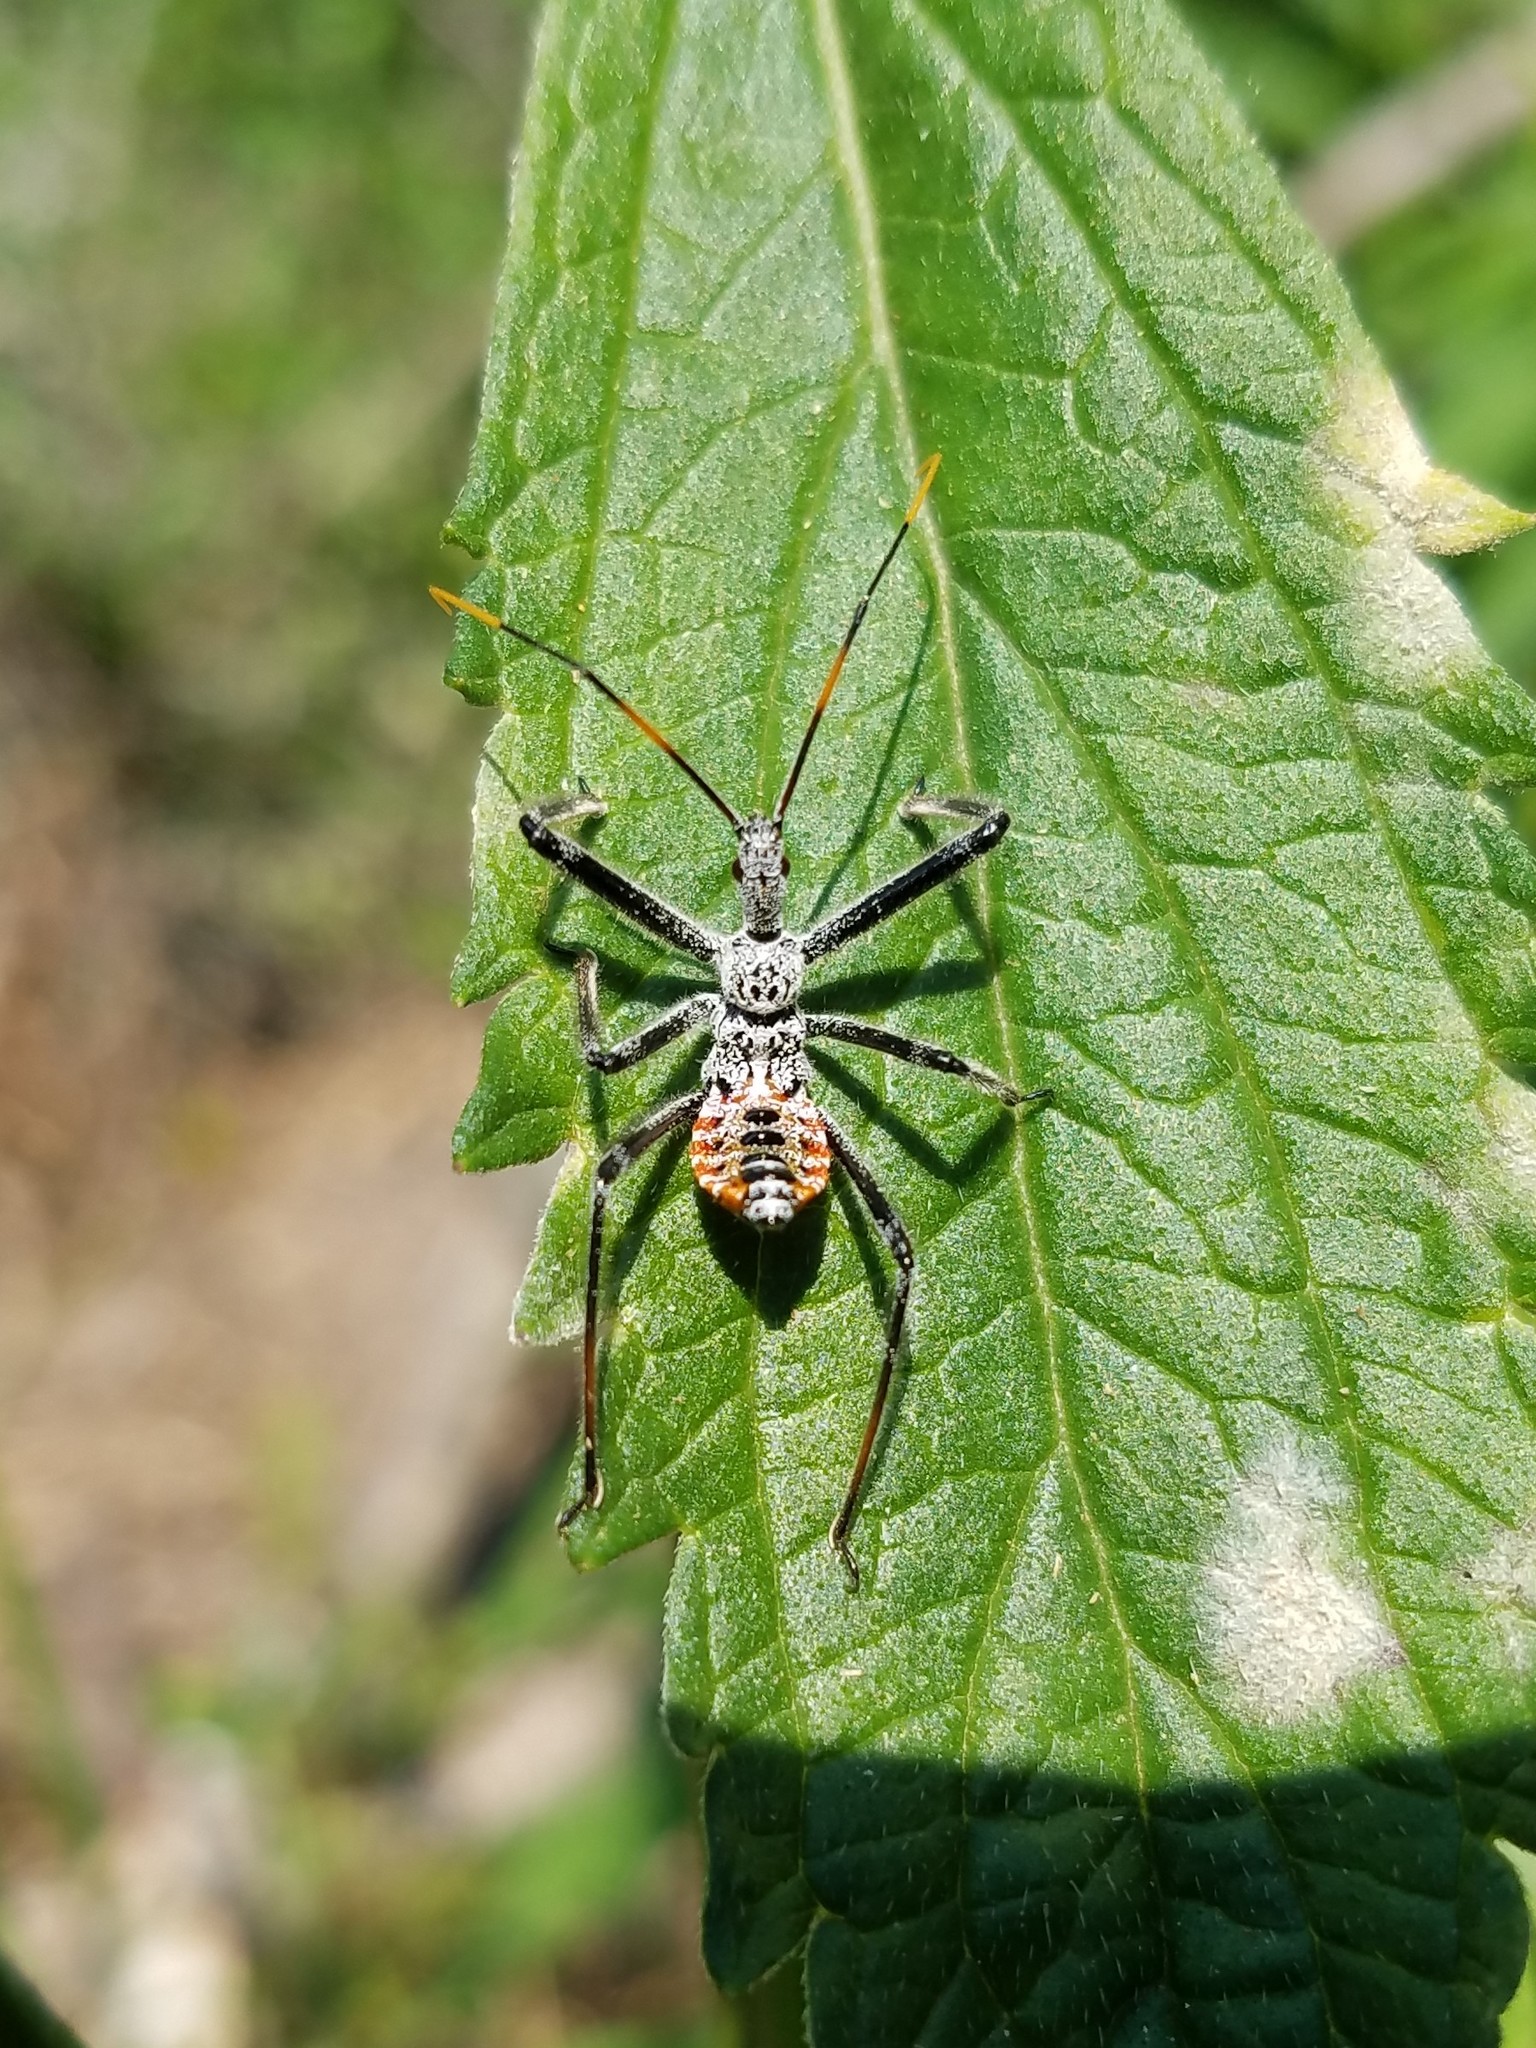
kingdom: Animalia
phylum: Arthropoda
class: Insecta
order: Hemiptera
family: Reduviidae
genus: Arilus
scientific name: Arilus cristatus
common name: North american wheel bug
